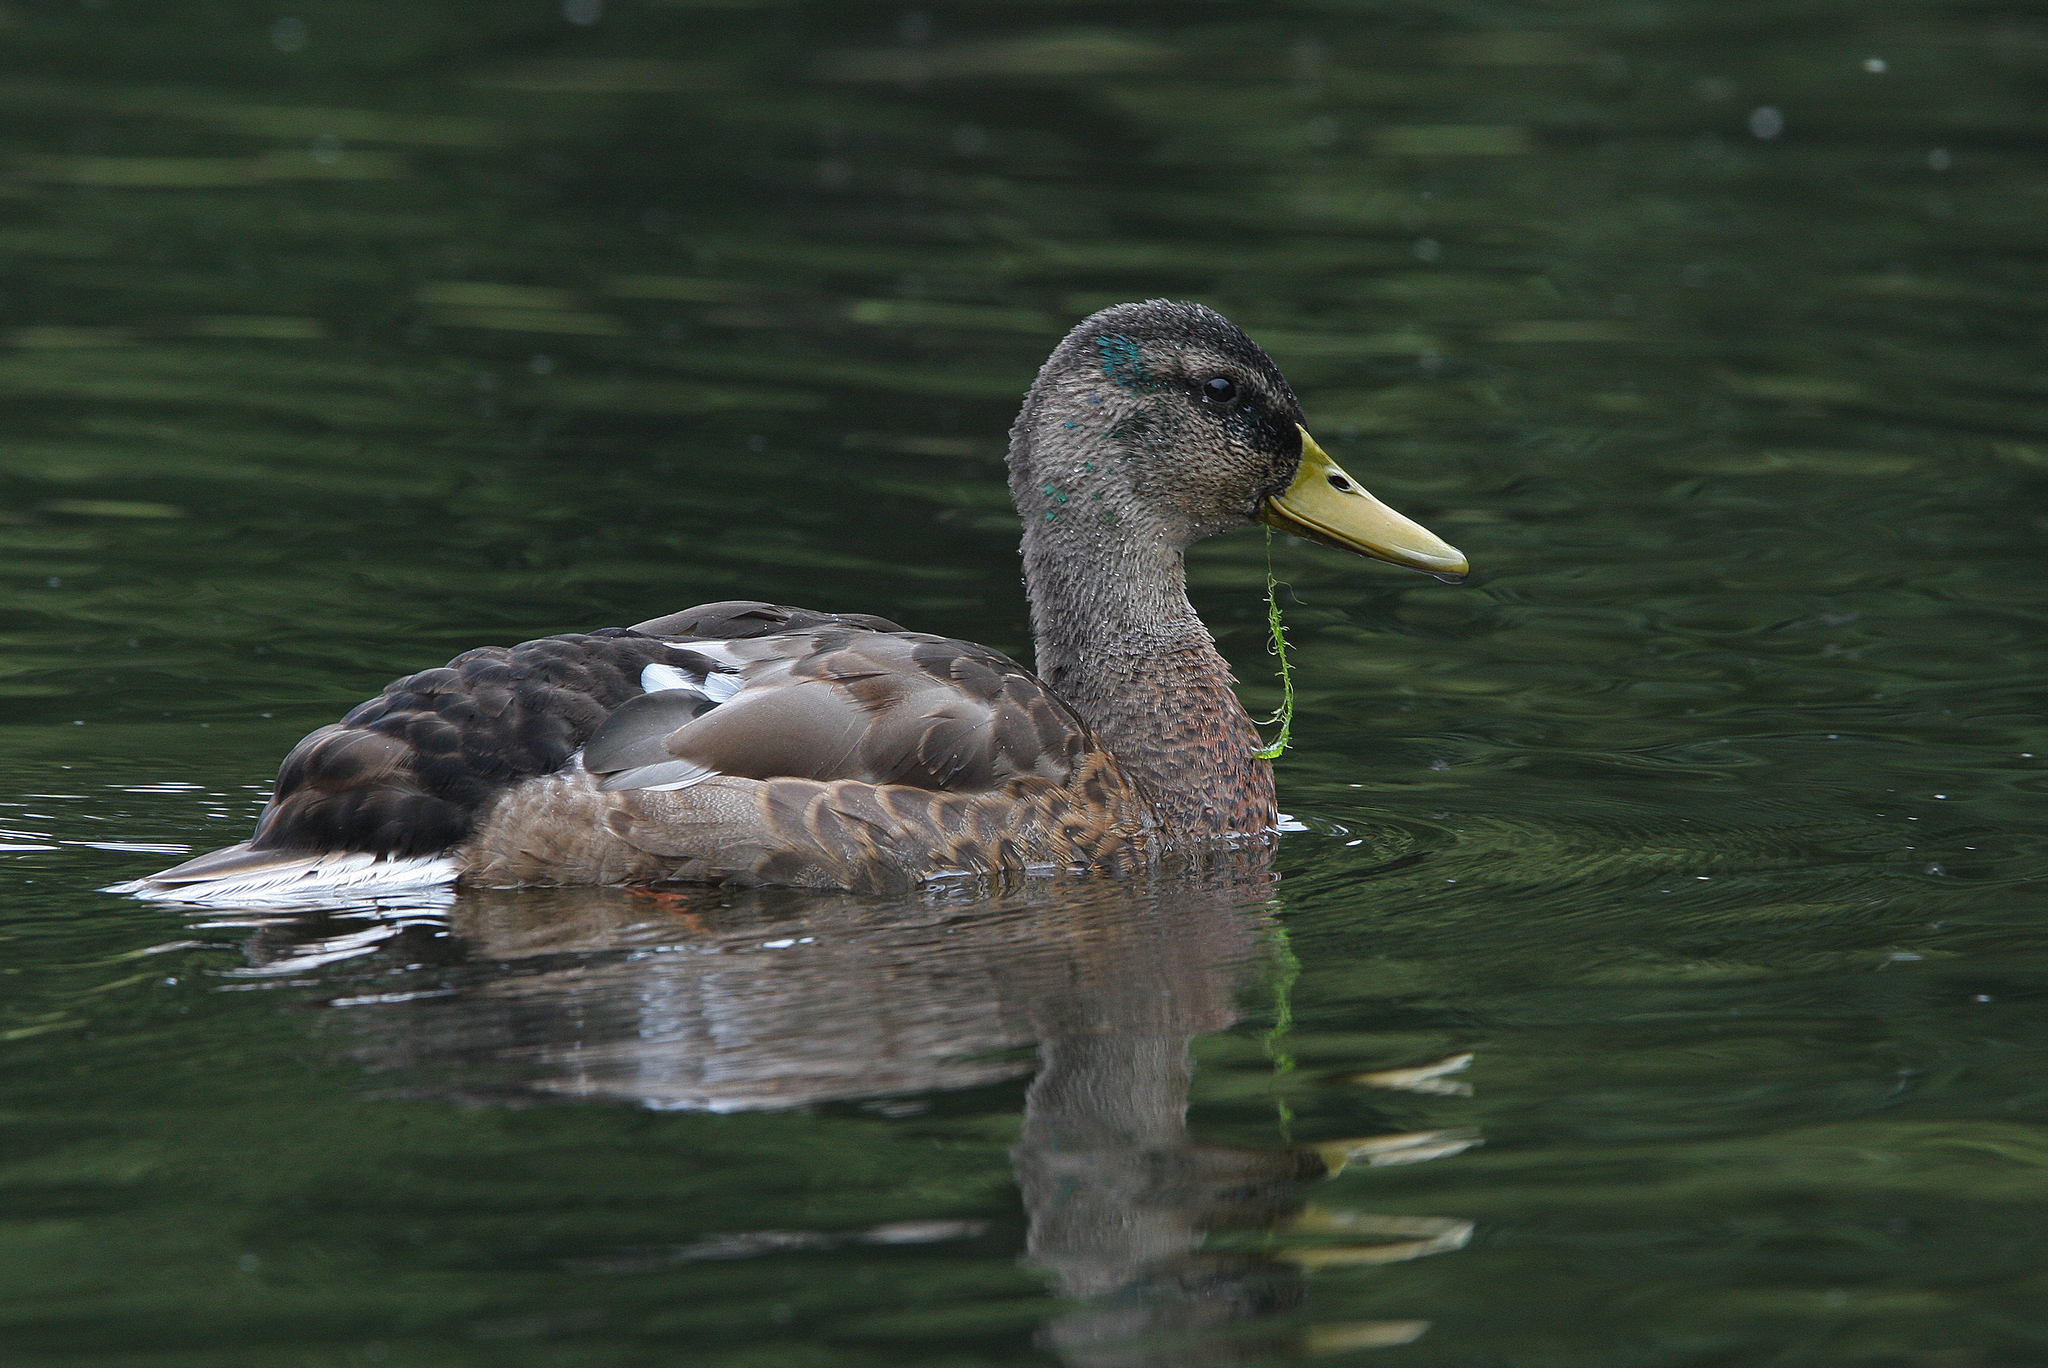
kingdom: Animalia
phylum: Chordata
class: Aves
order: Anseriformes
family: Anatidae
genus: Anas
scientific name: Anas platyrhynchos
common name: Mallard
